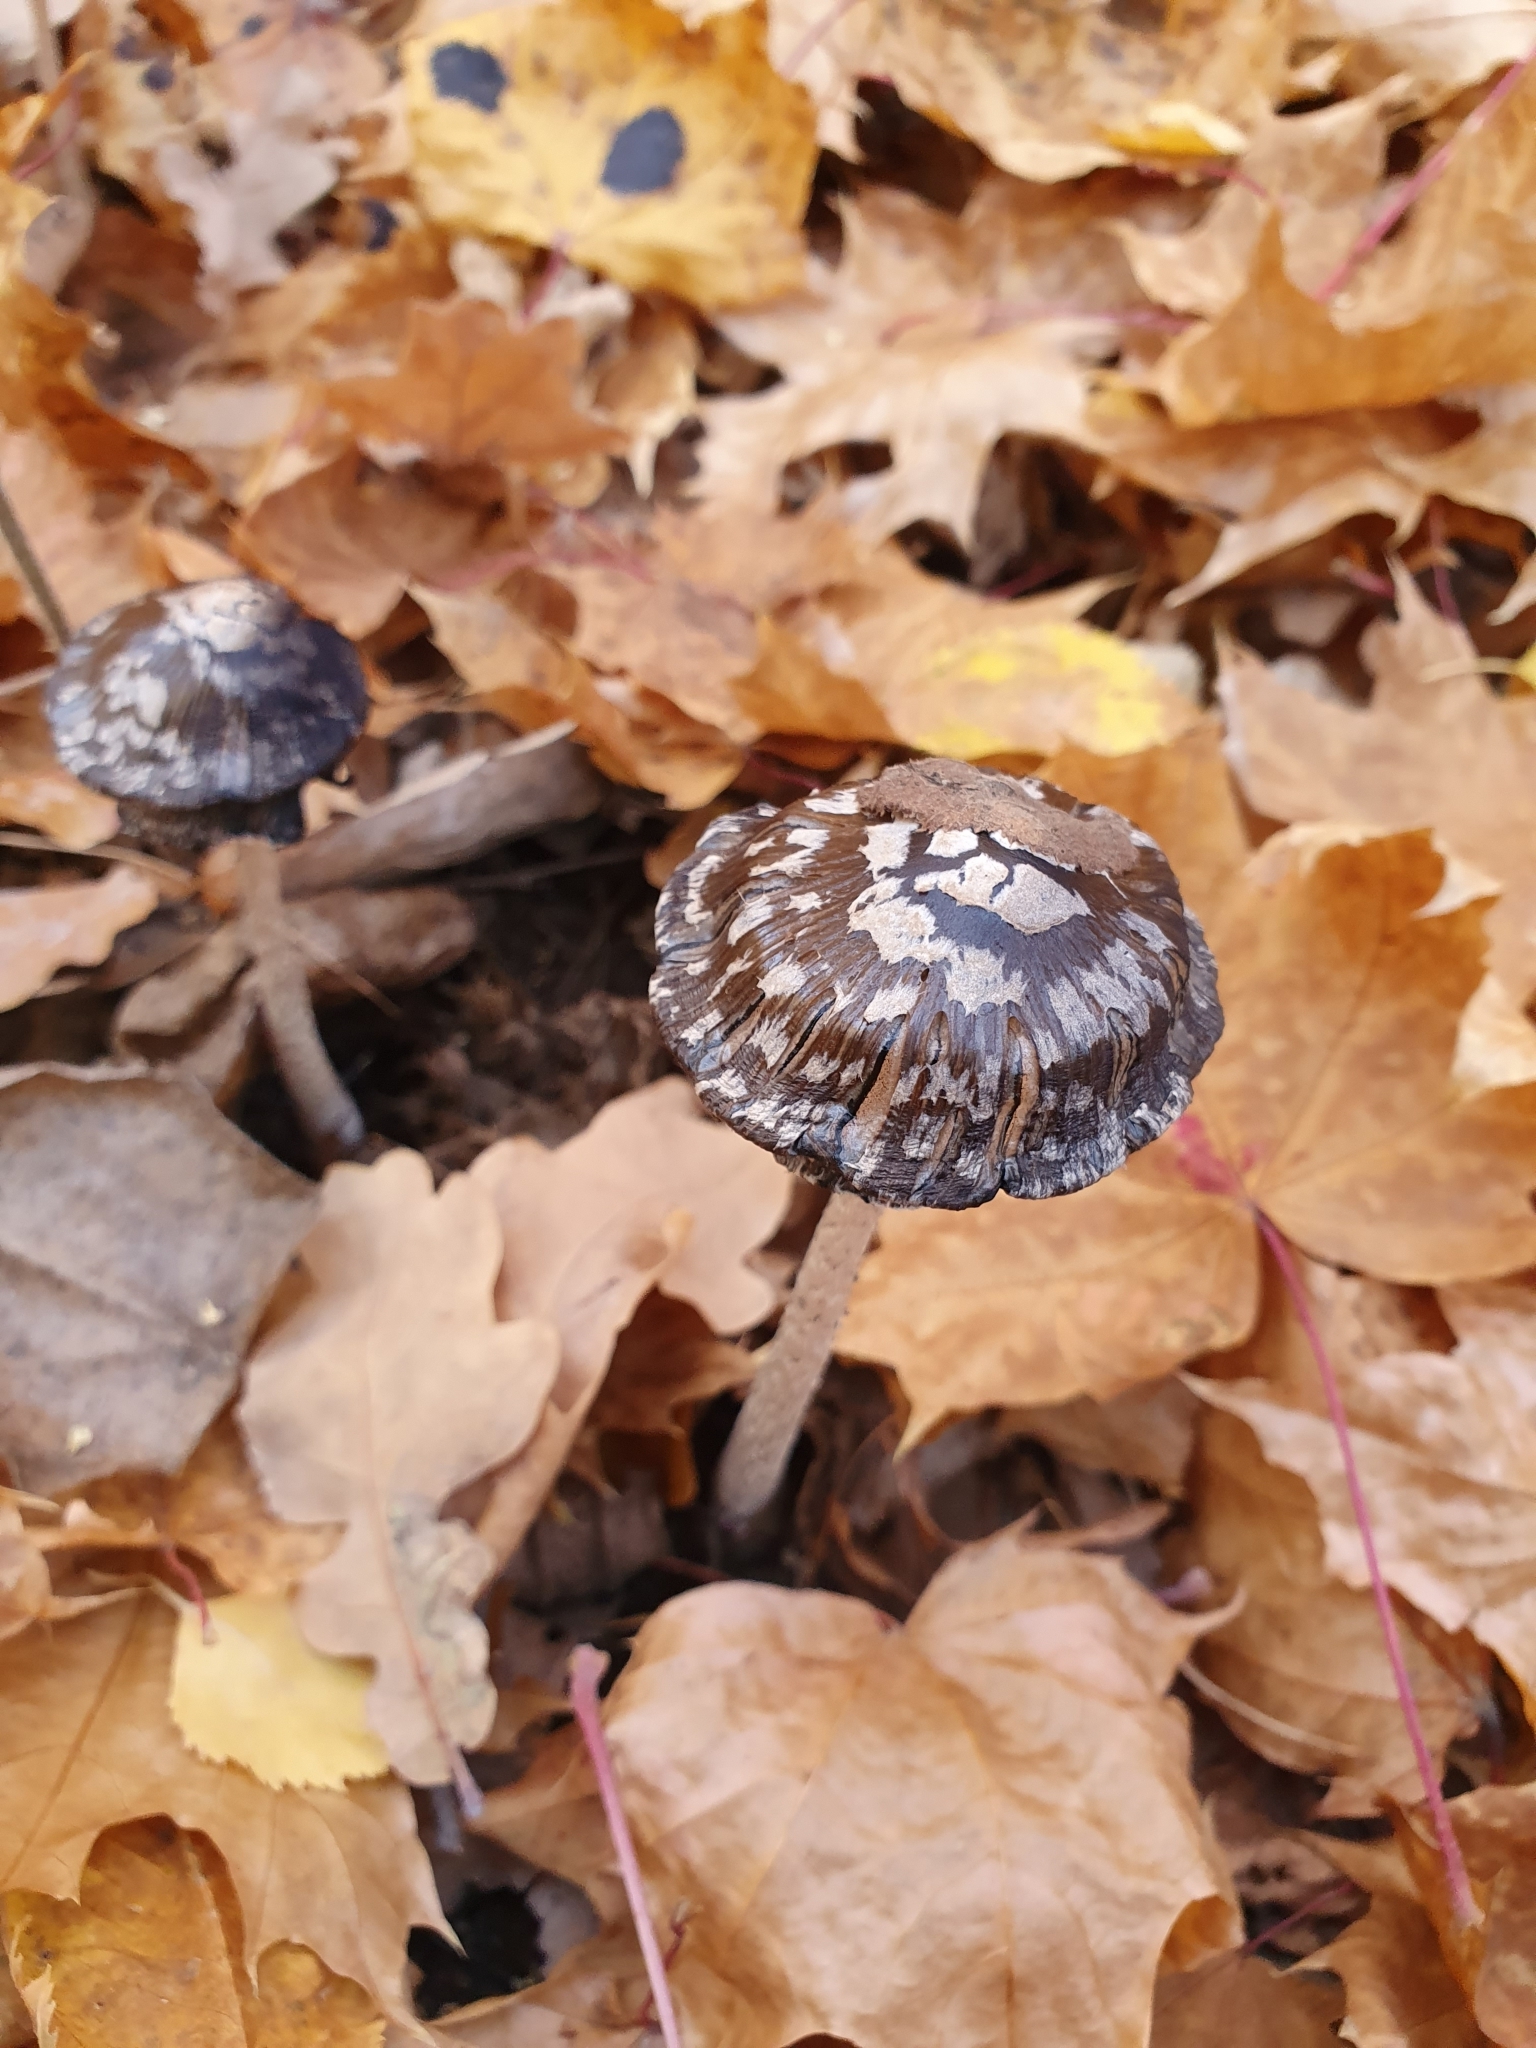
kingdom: Fungi
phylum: Basidiomycota
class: Agaricomycetes
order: Agaricales
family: Psathyrellaceae
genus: Coprinopsis
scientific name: Coprinopsis picacea
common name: Magpie inkcap
